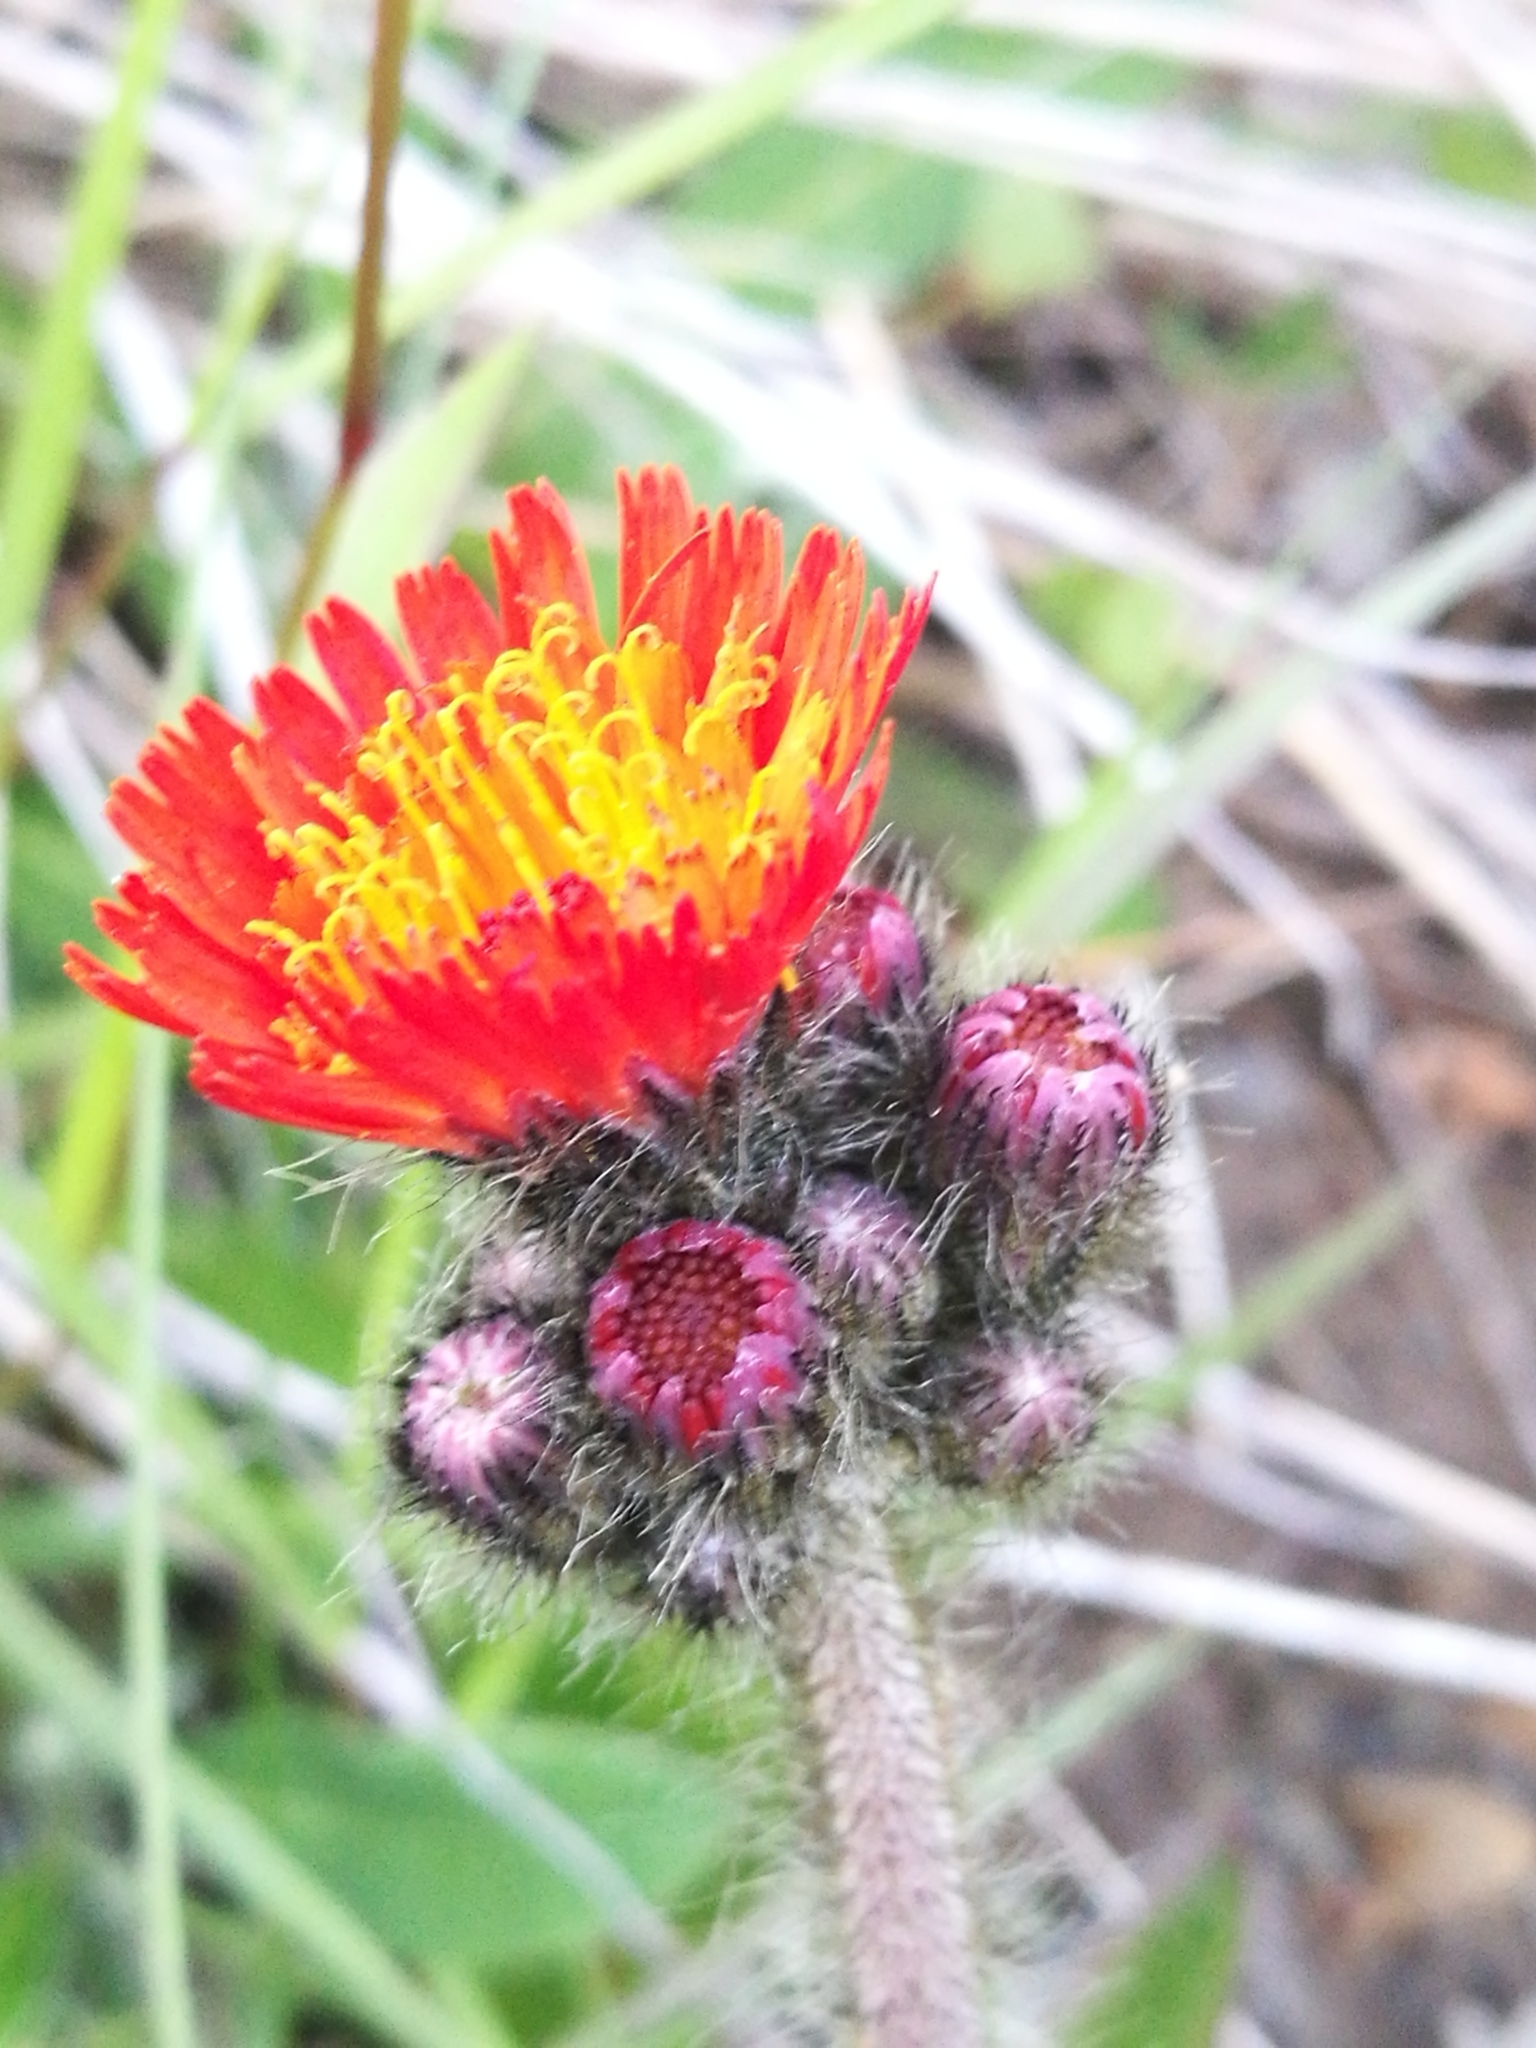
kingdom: Plantae
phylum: Tracheophyta
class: Magnoliopsida
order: Asterales
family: Asteraceae
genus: Pilosella
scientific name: Pilosella aurantiaca
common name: Fox-and-cubs
